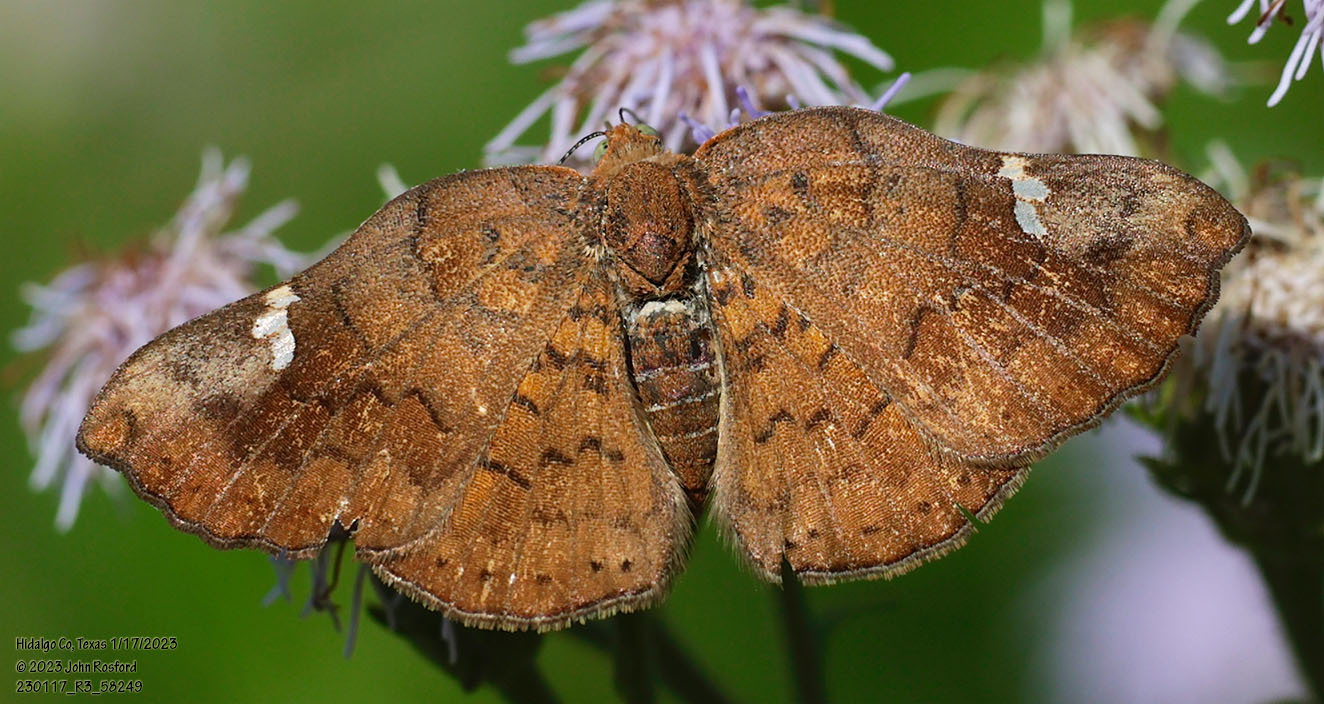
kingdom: Animalia
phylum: Arthropoda
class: Insecta
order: Lepidoptera
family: Riodinidae
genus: Curvie
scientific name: Curvie emesia
